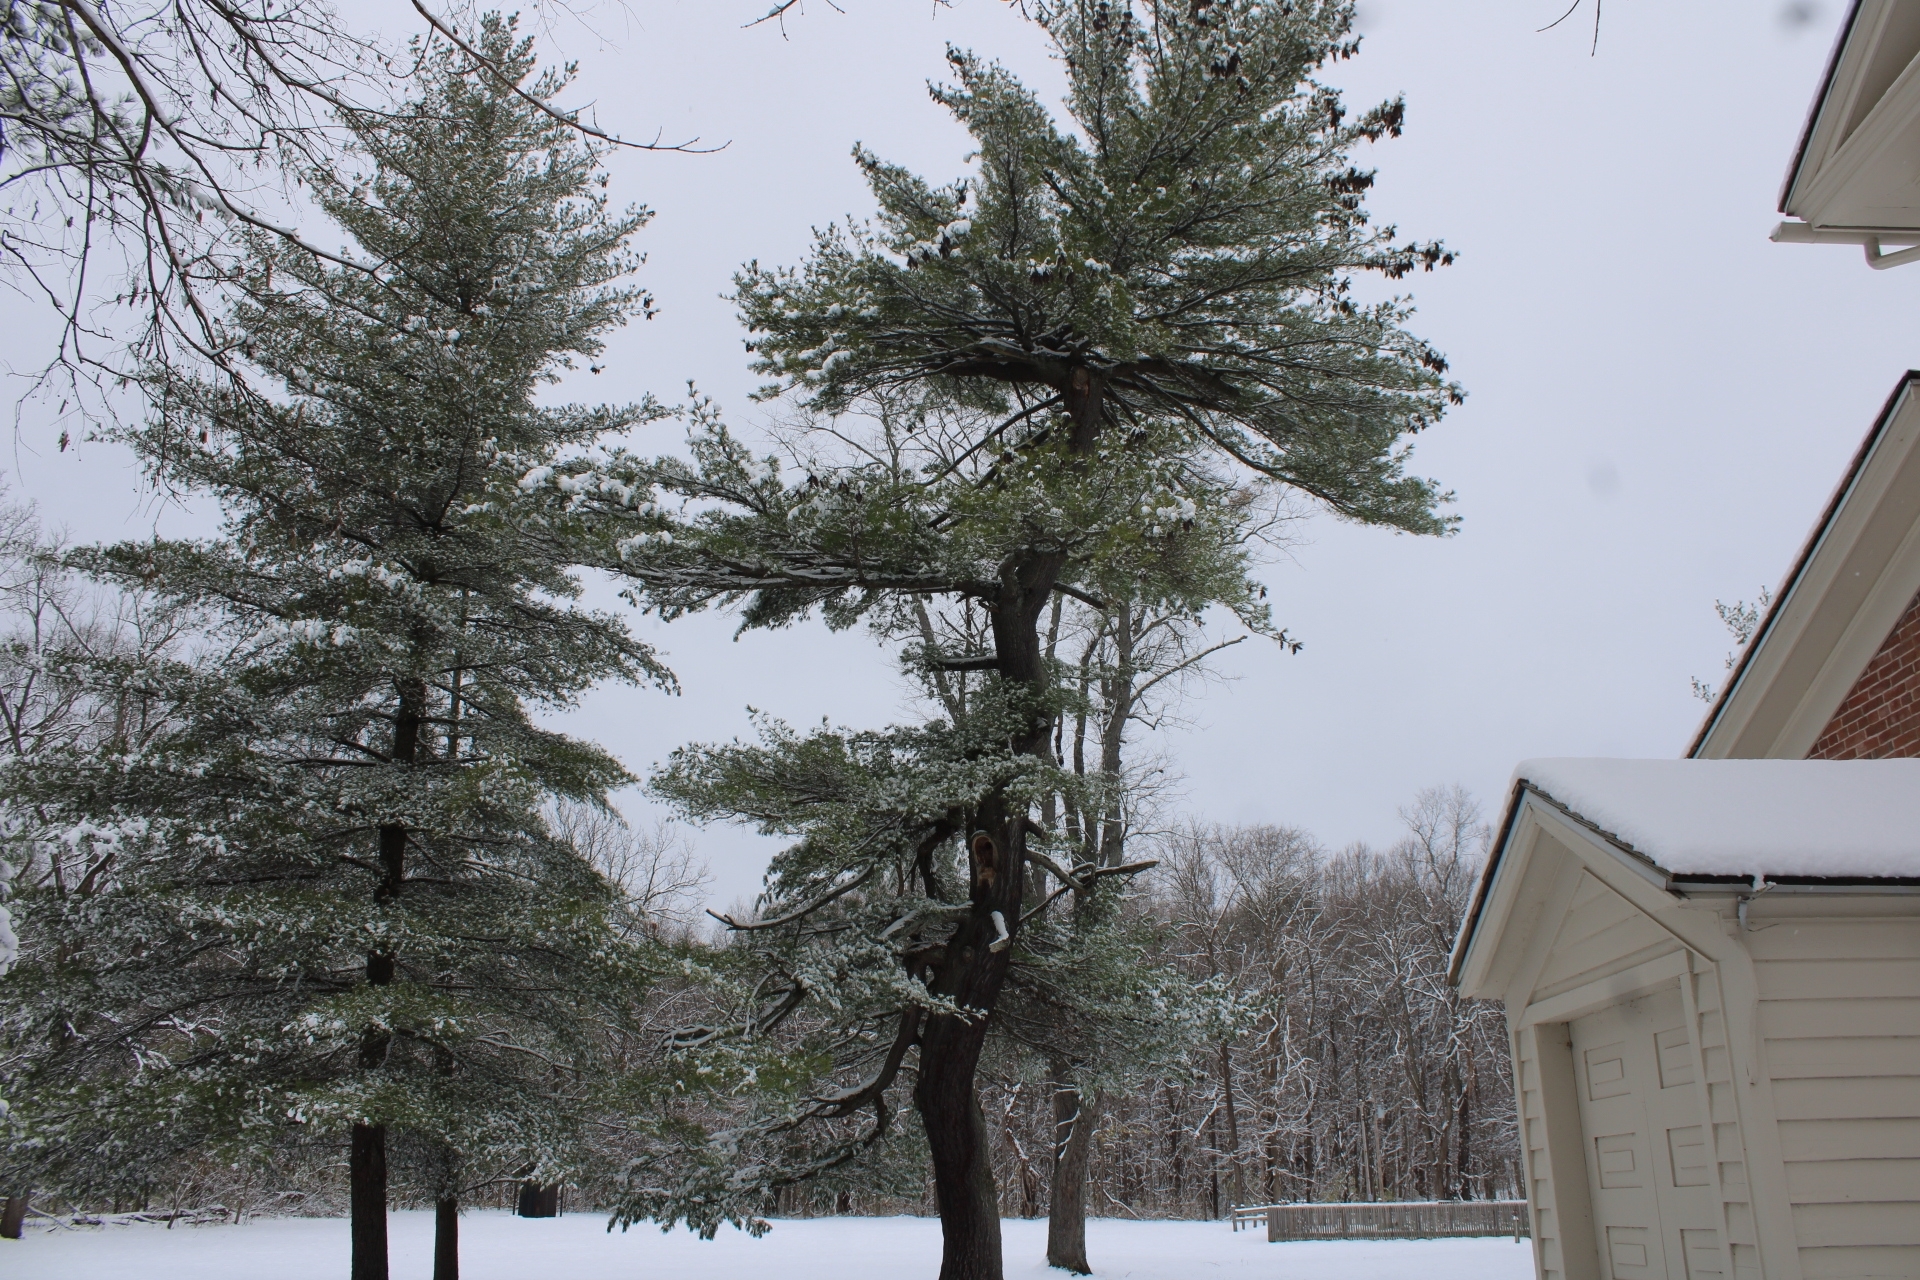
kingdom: Plantae
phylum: Tracheophyta
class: Pinopsida
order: Pinales
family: Pinaceae
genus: Pinus
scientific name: Pinus strobus
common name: Weymouth pine
